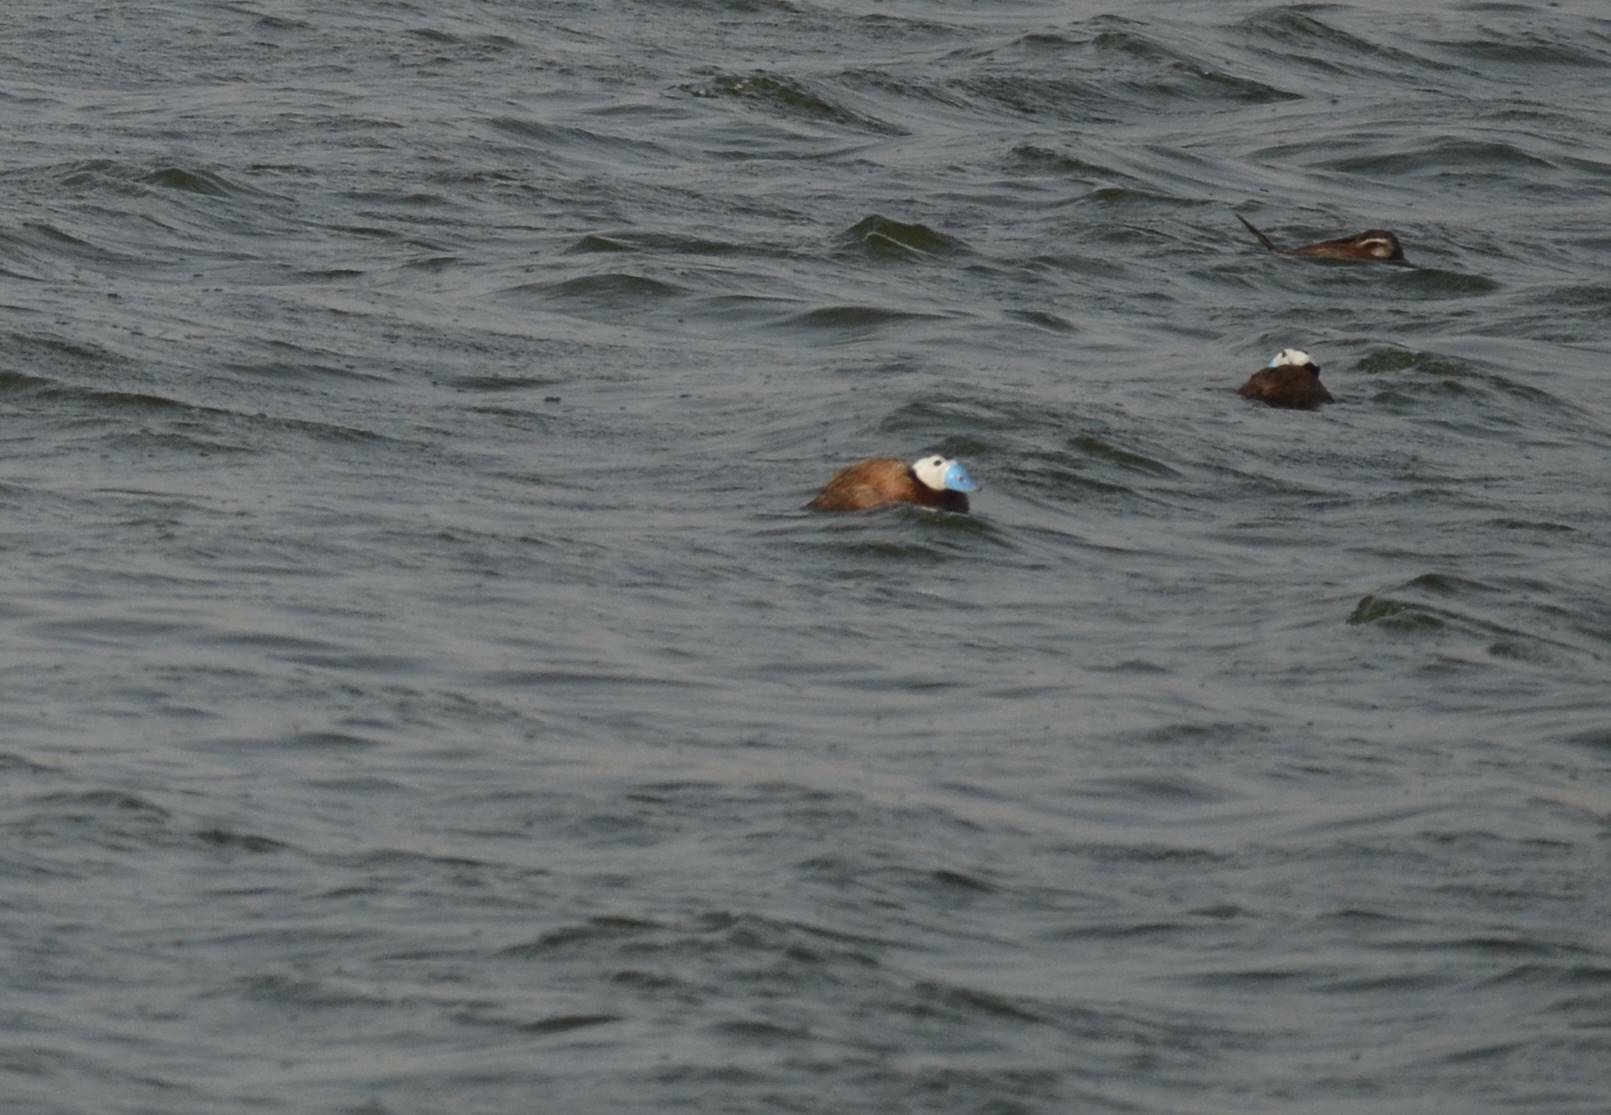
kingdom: Animalia
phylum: Chordata
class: Aves
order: Anseriformes
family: Anatidae
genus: Oxyura
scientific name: Oxyura leucocephala
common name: White-headed duck
